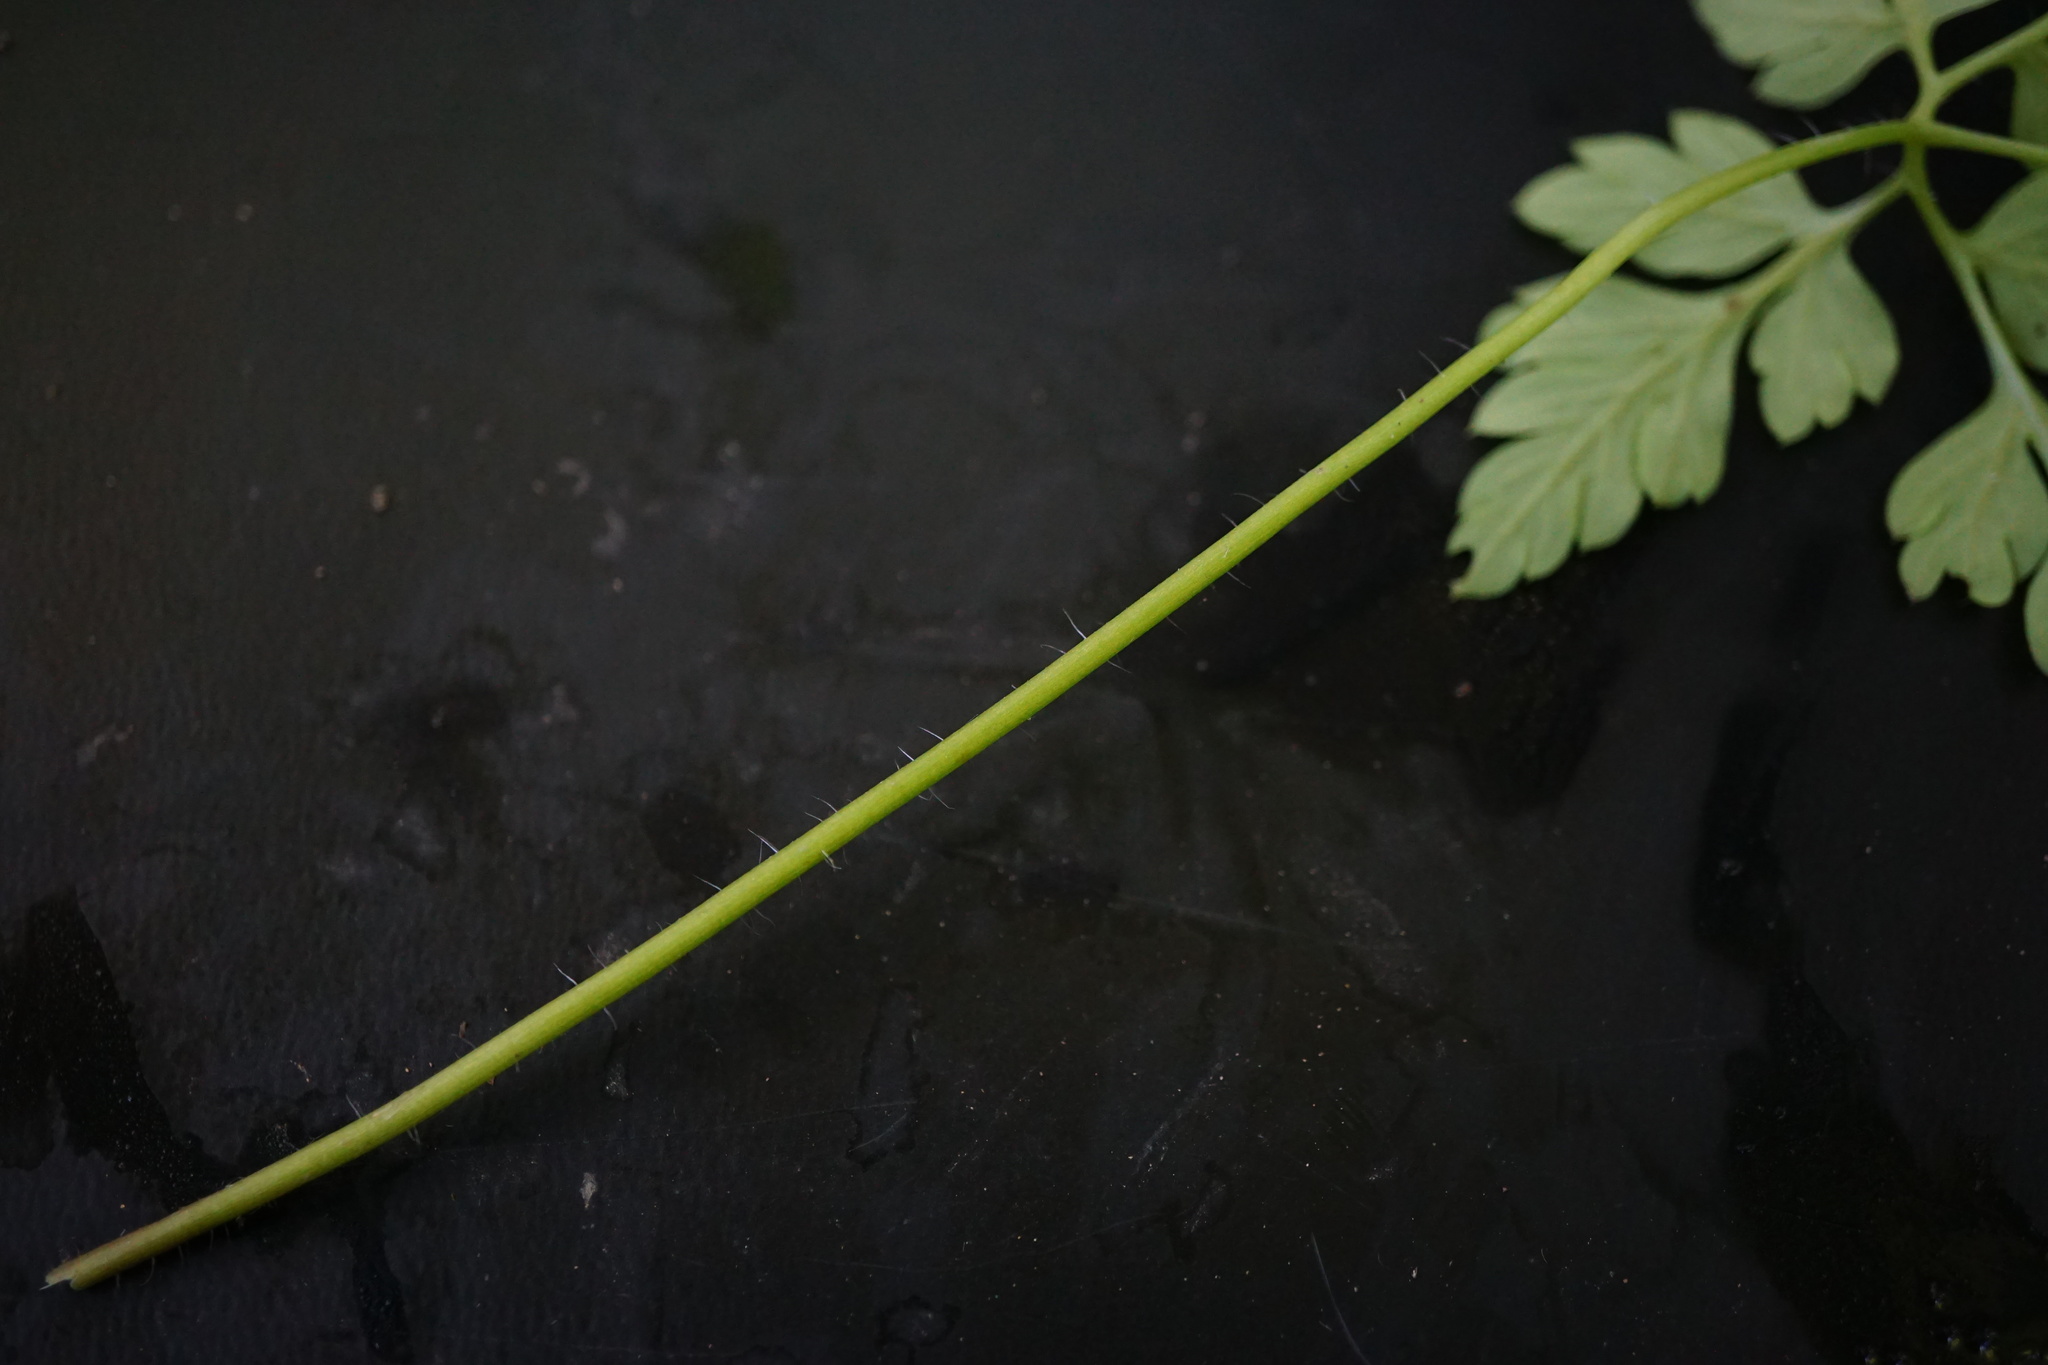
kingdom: Plantae
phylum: Tracheophyta
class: Magnoliopsida
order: Geraniales
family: Geraniaceae
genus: Geranium
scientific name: Geranium robertianum
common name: Herb-robert
